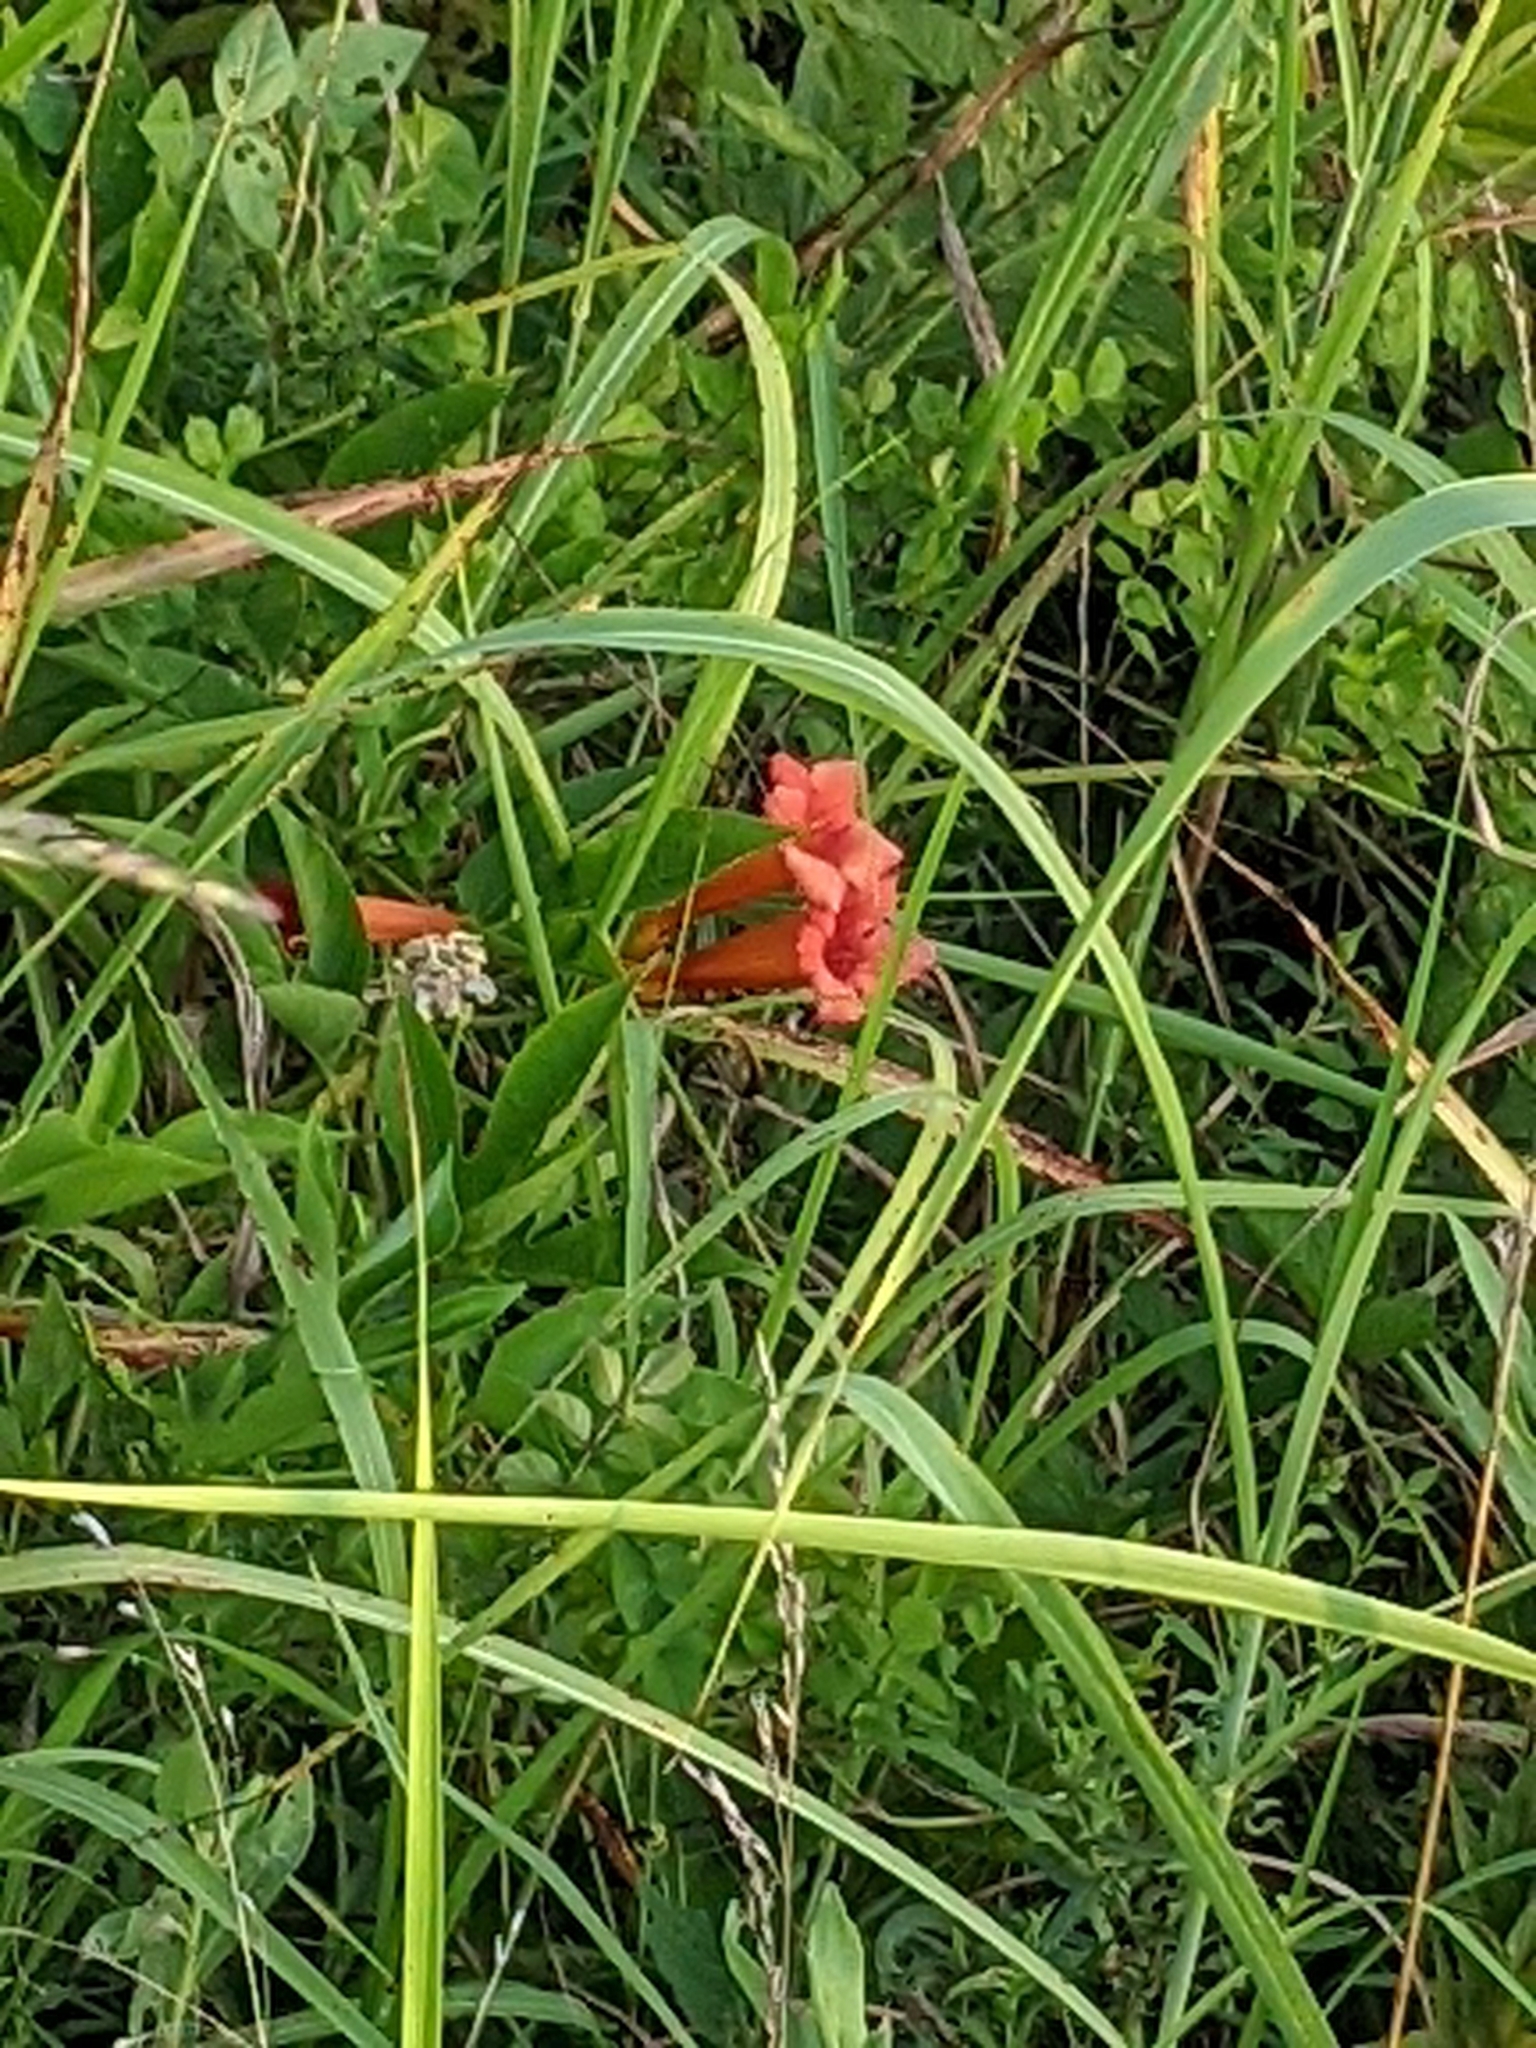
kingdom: Plantae
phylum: Tracheophyta
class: Magnoliopsida
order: Lamiales
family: Bignoniaceae
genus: Campsis
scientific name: Campsis radicans
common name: Trumpet-creeper
